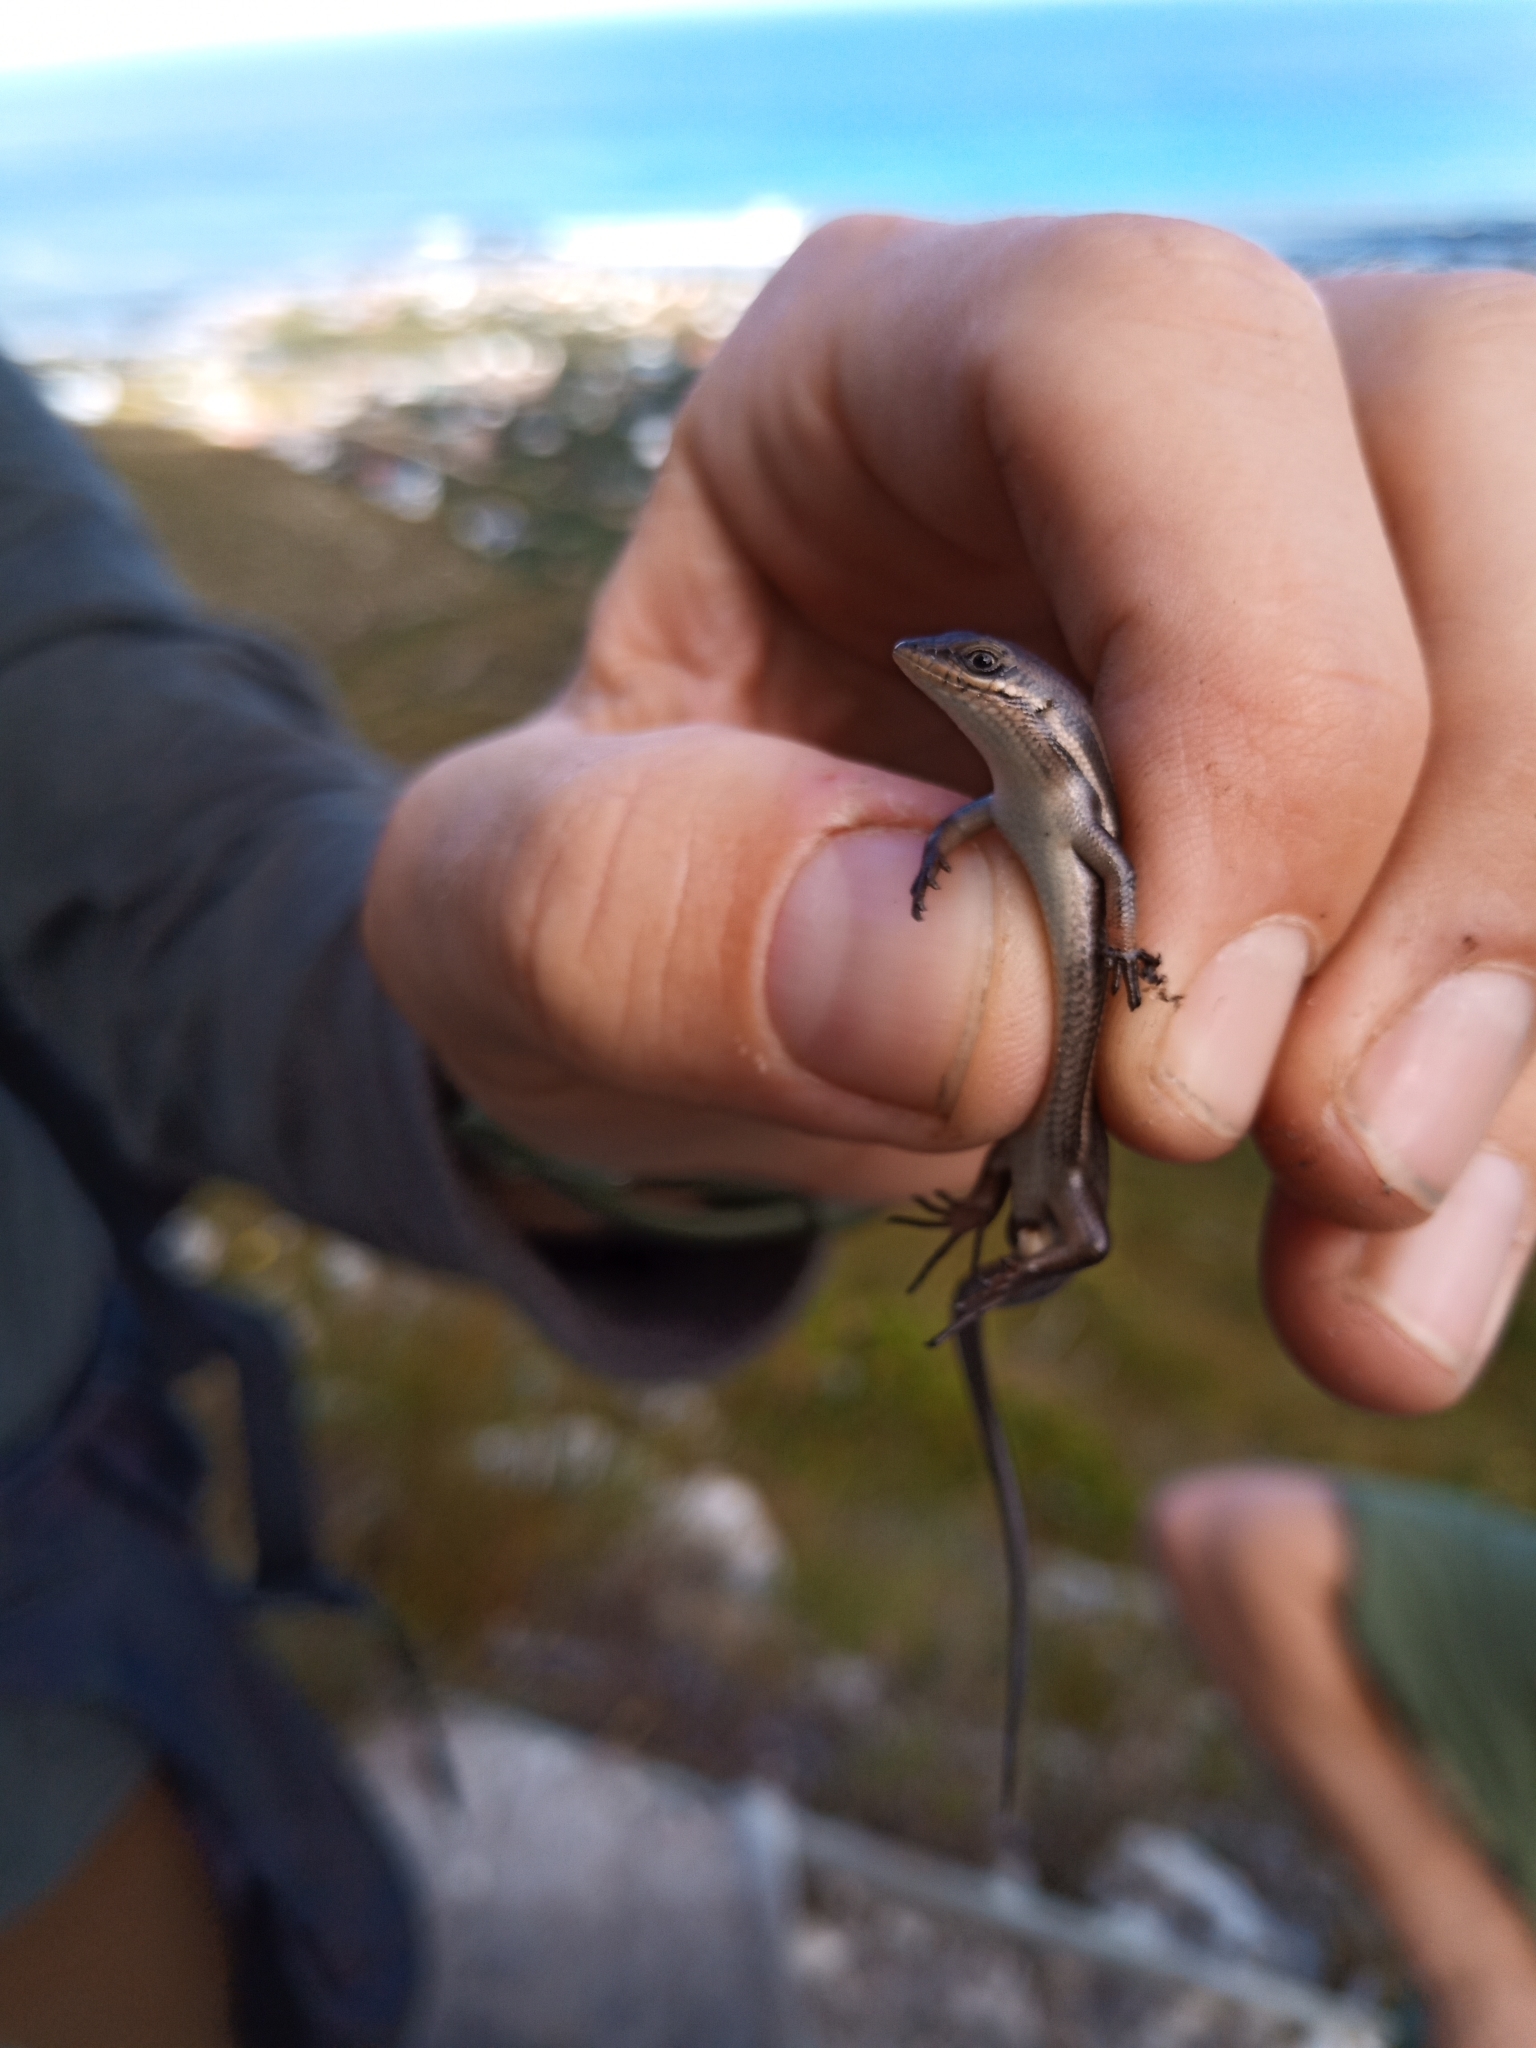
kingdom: Animalia
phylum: Chordata
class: Squamata
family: Scincidae
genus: Trachylepis
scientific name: Trachylepis homalocephala
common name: Red-sided skink
